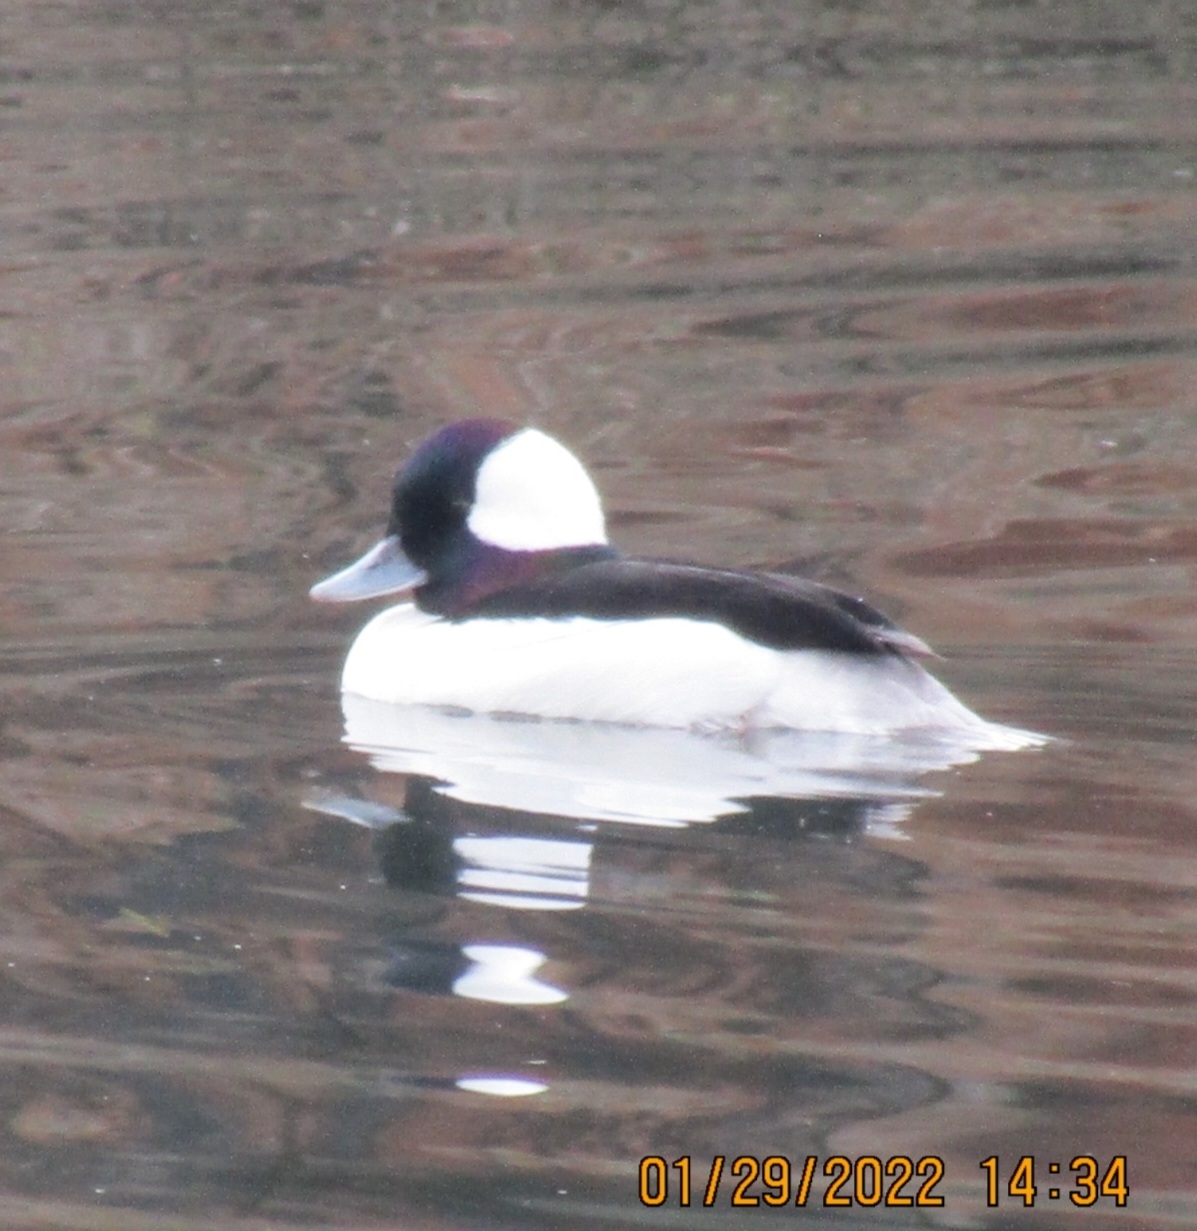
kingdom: Animalia
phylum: Chordata
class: Aves
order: Anseriformes
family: Anatidae
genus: Bucephala
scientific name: Bucephala albeola
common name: Bufflehead
